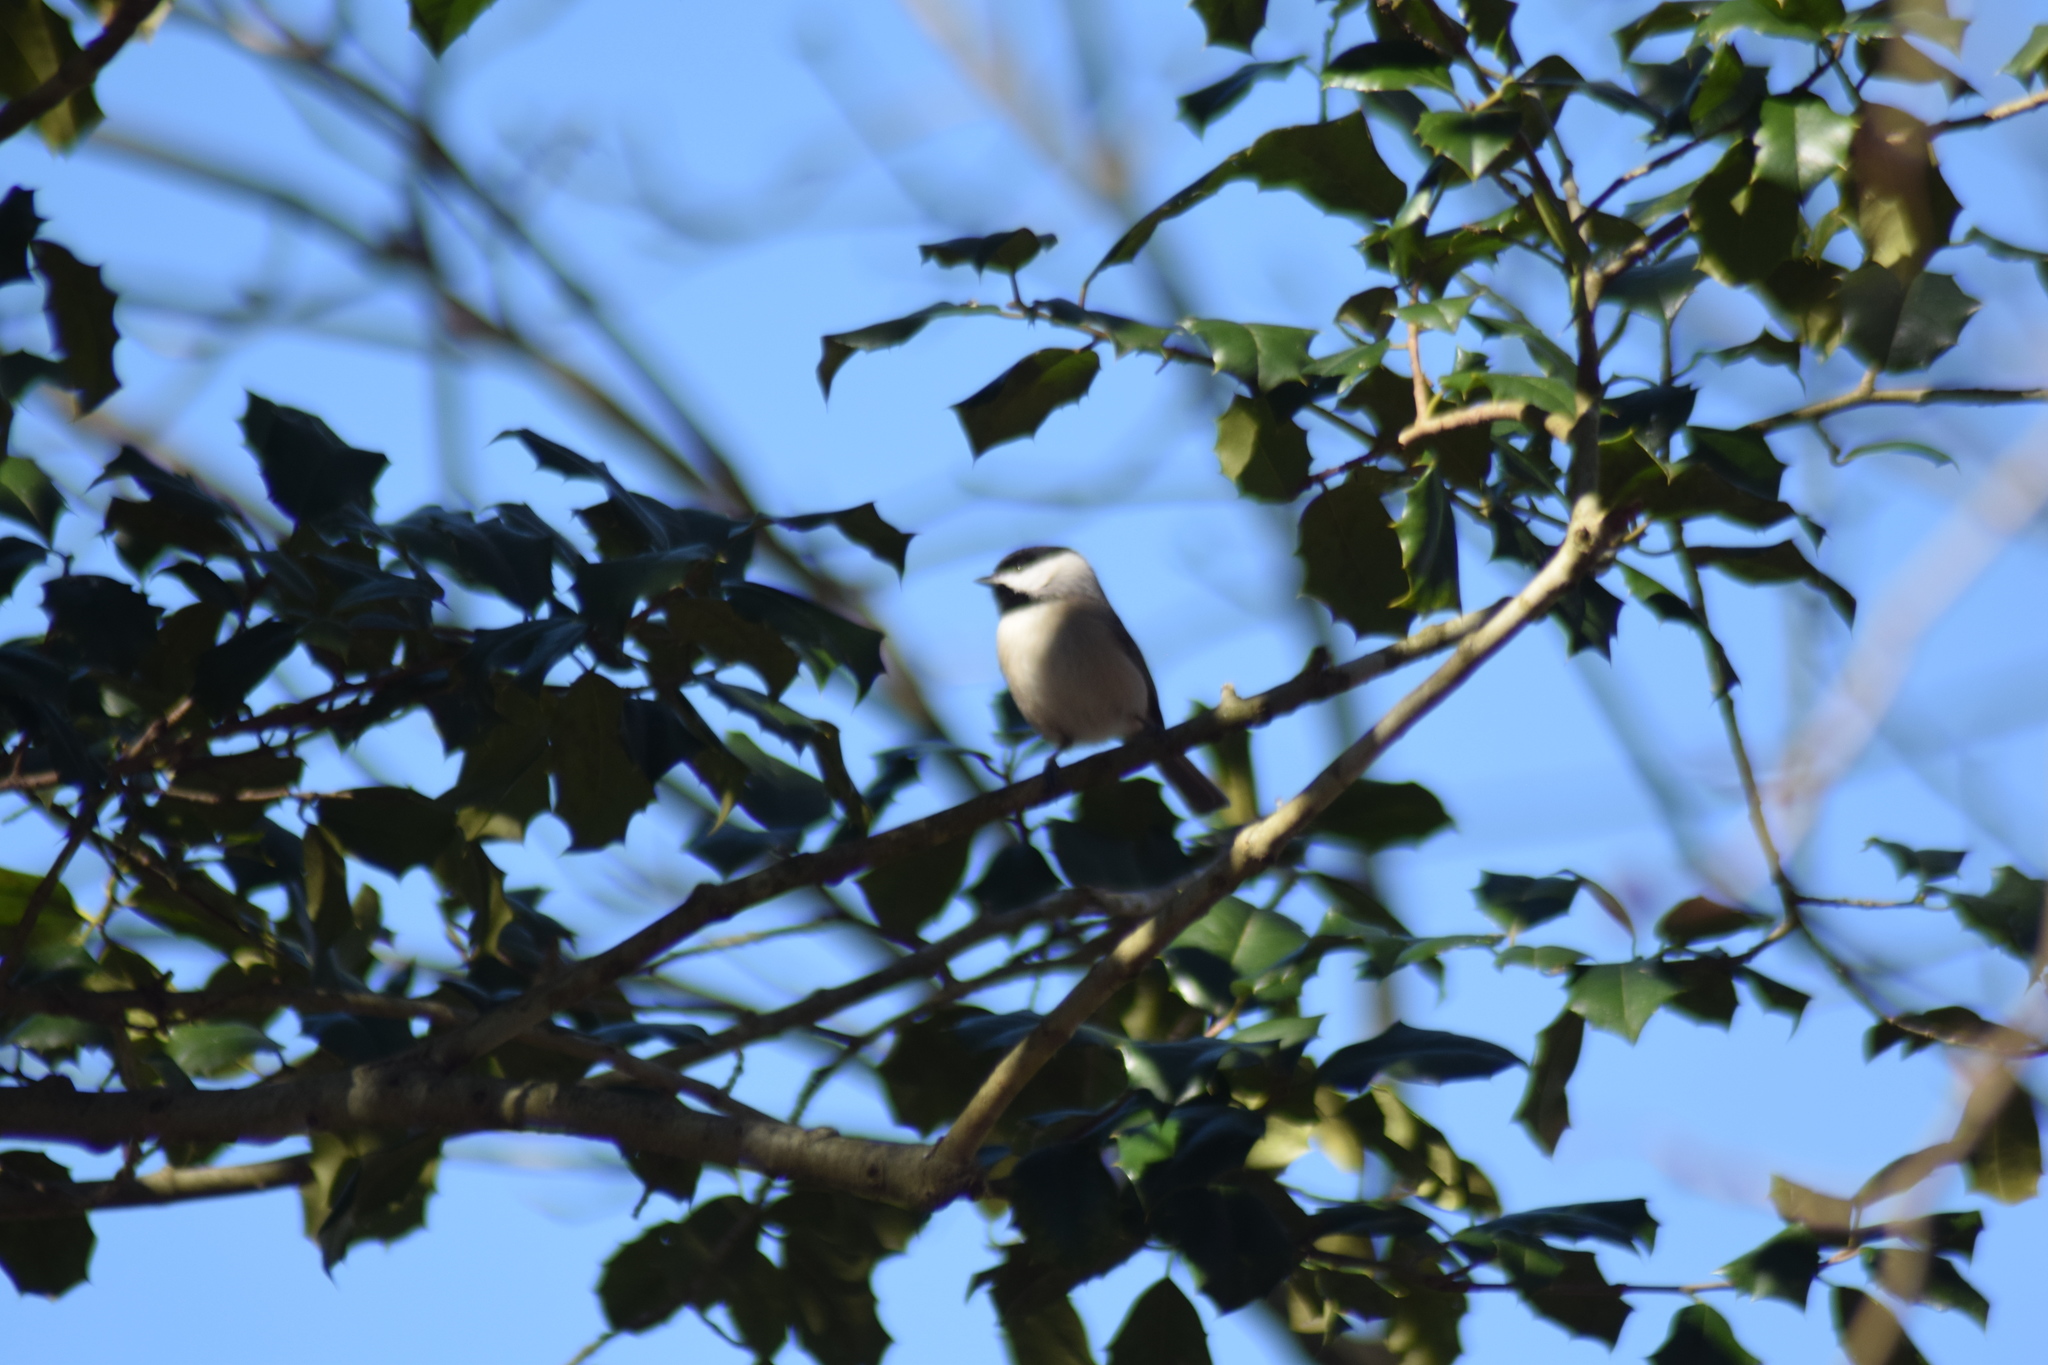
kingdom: Animalia
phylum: Chordata
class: Aves
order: Passeriformes
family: Paridae
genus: Poecile
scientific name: Poecile carolinensis
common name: Carolina chickadee
